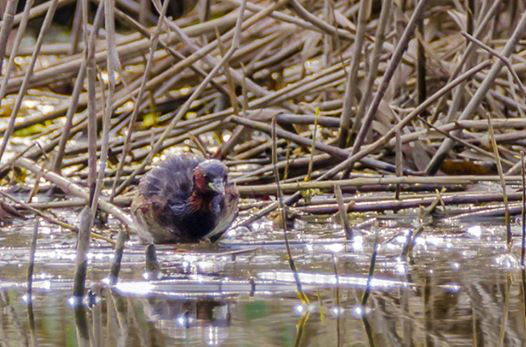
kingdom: Animalia
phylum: Chordata
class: Aves
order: Podicipediformes
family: Podicipedidae
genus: Tachybaptus
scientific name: Tachybaptus ruficollis
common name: Little grebe
